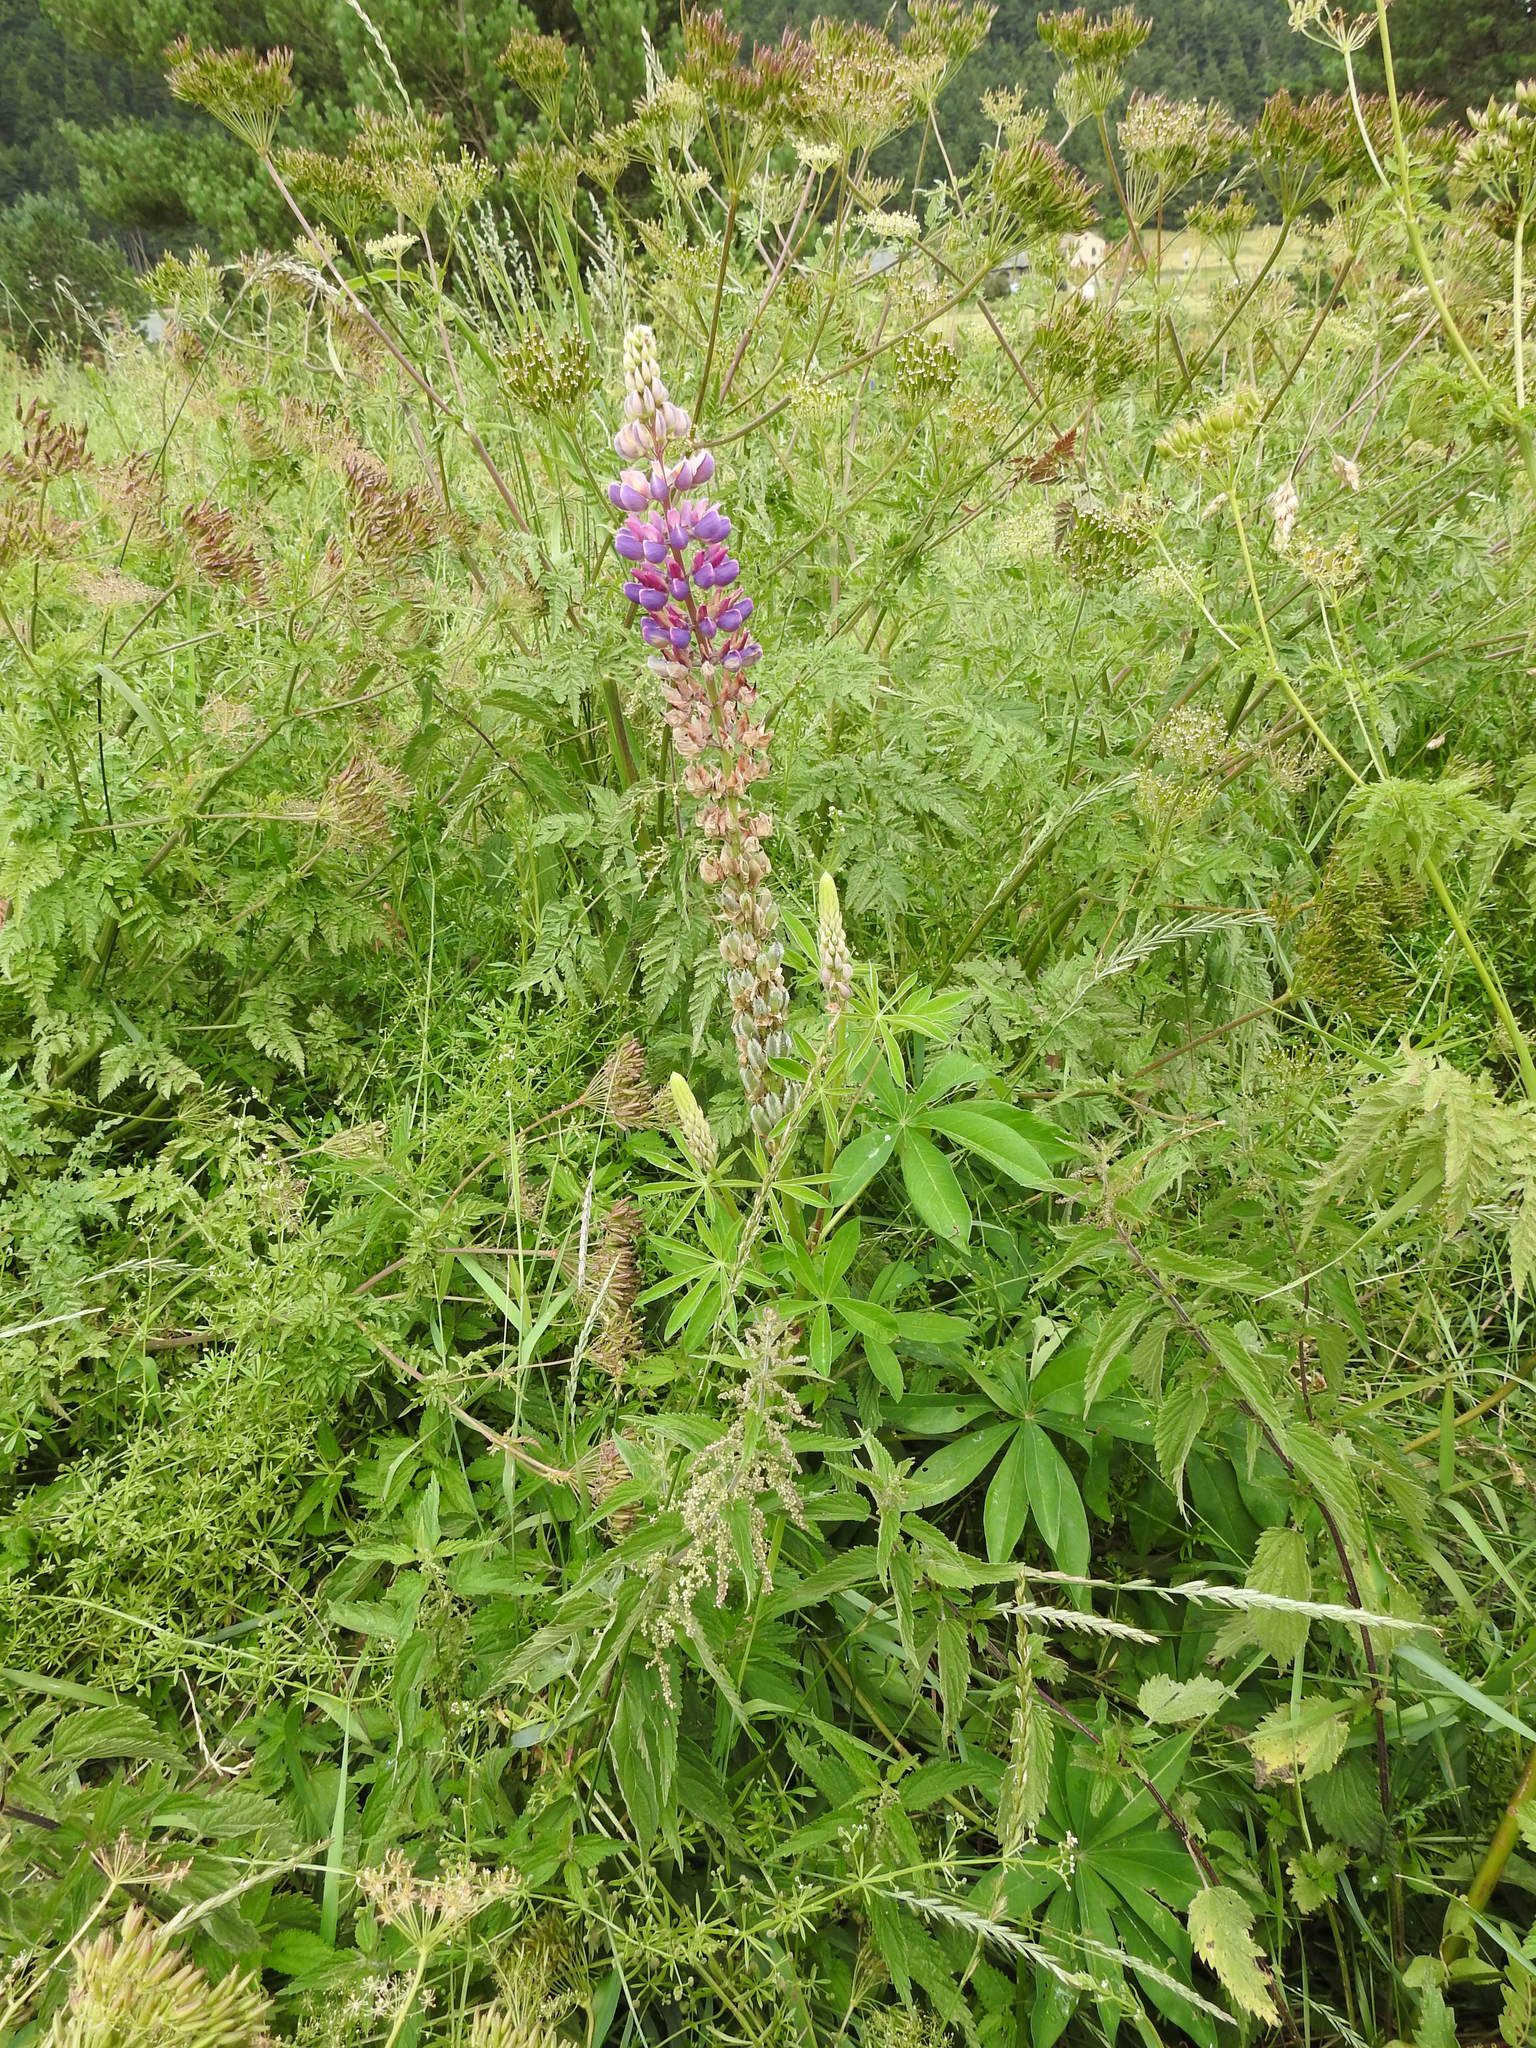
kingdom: Plantae
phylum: Tracheophyta
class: Magnoliopsida
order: Fabales
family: Fabaceae
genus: Lupinus
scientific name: Lupinus polyphyllus
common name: Garden lupin
